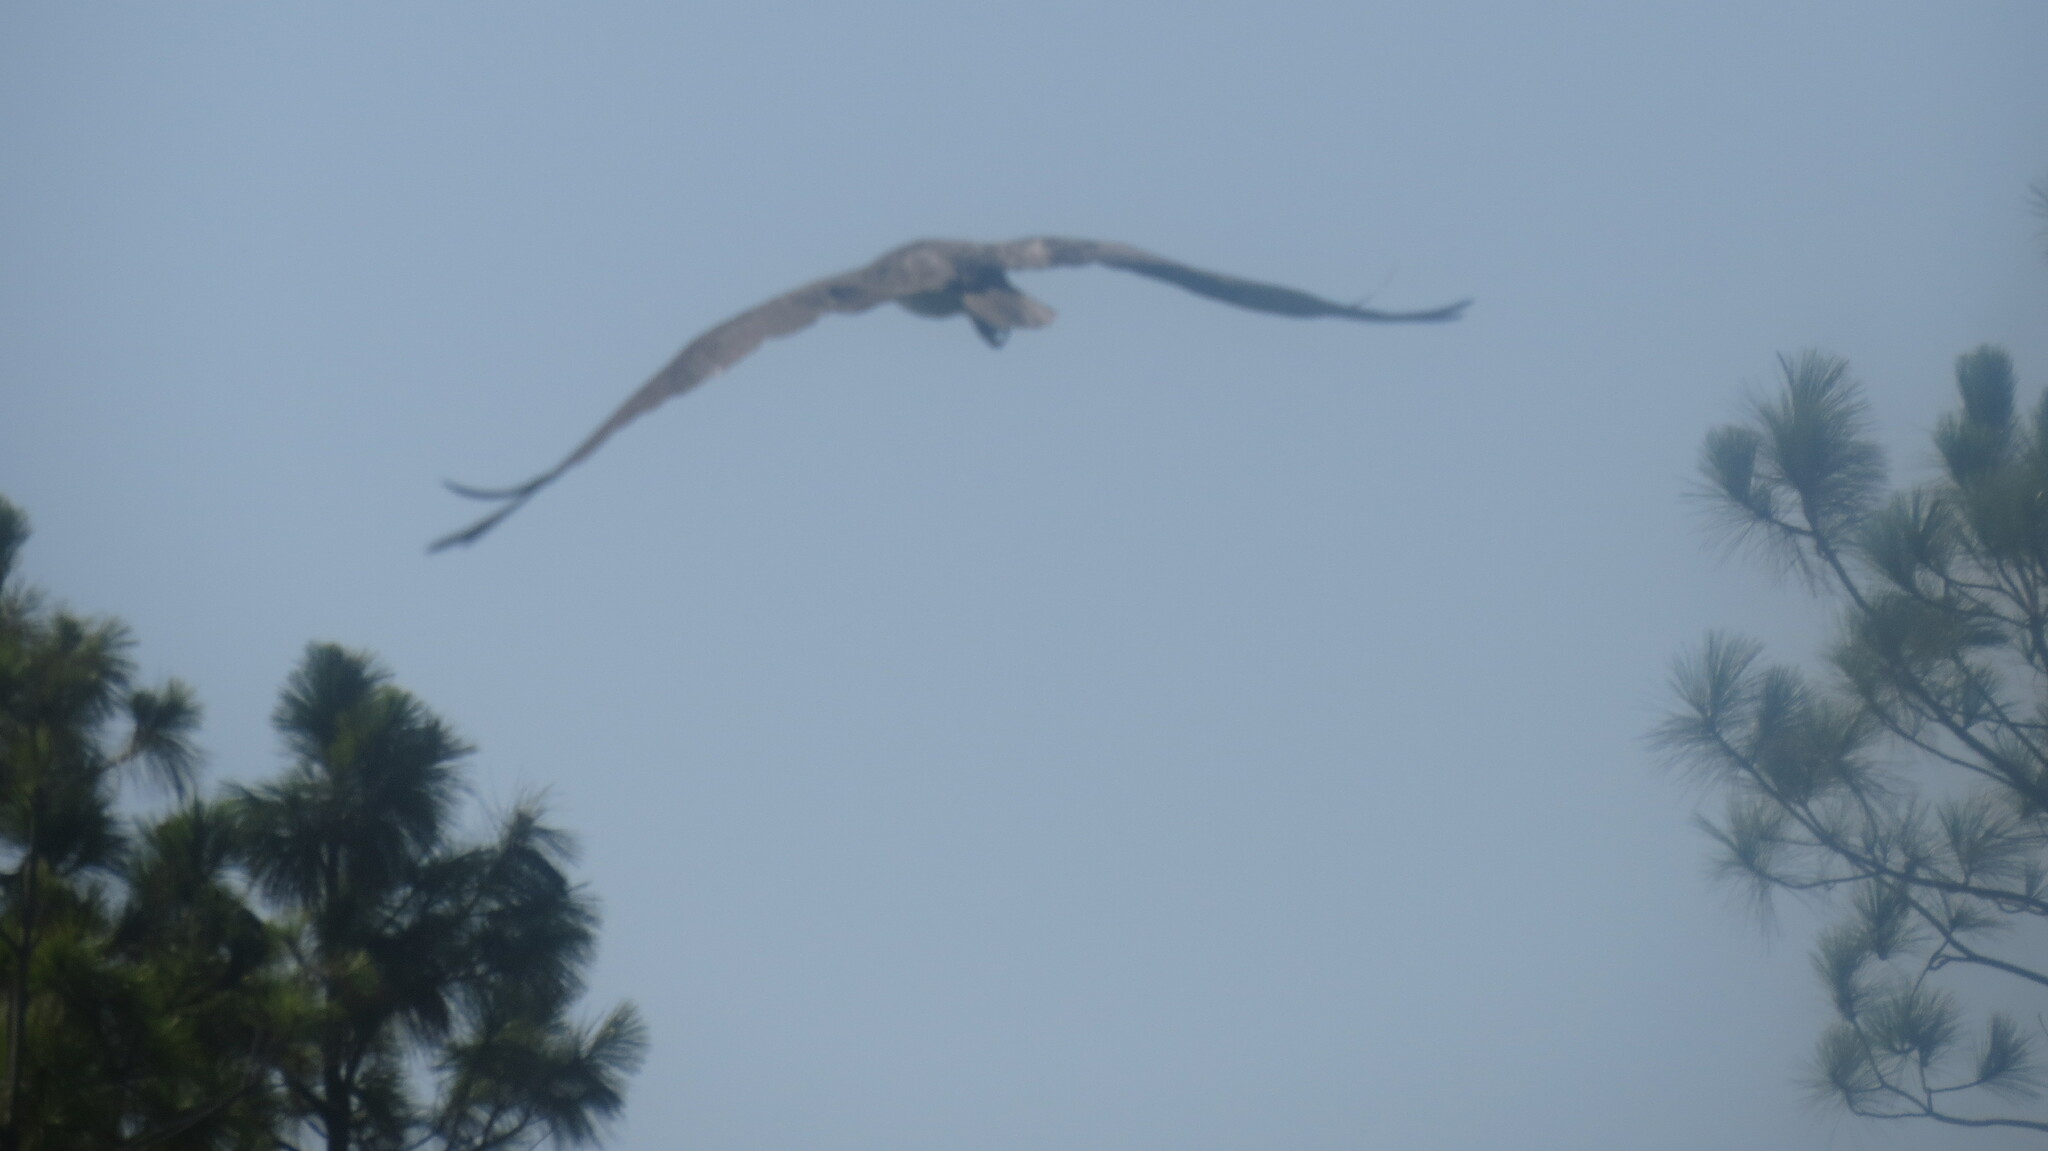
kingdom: Animalia
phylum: Chordata
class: Aves
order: Accipitriformes
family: Pandionidae
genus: Pandion
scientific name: Pandion haliaetus
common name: Osprey
